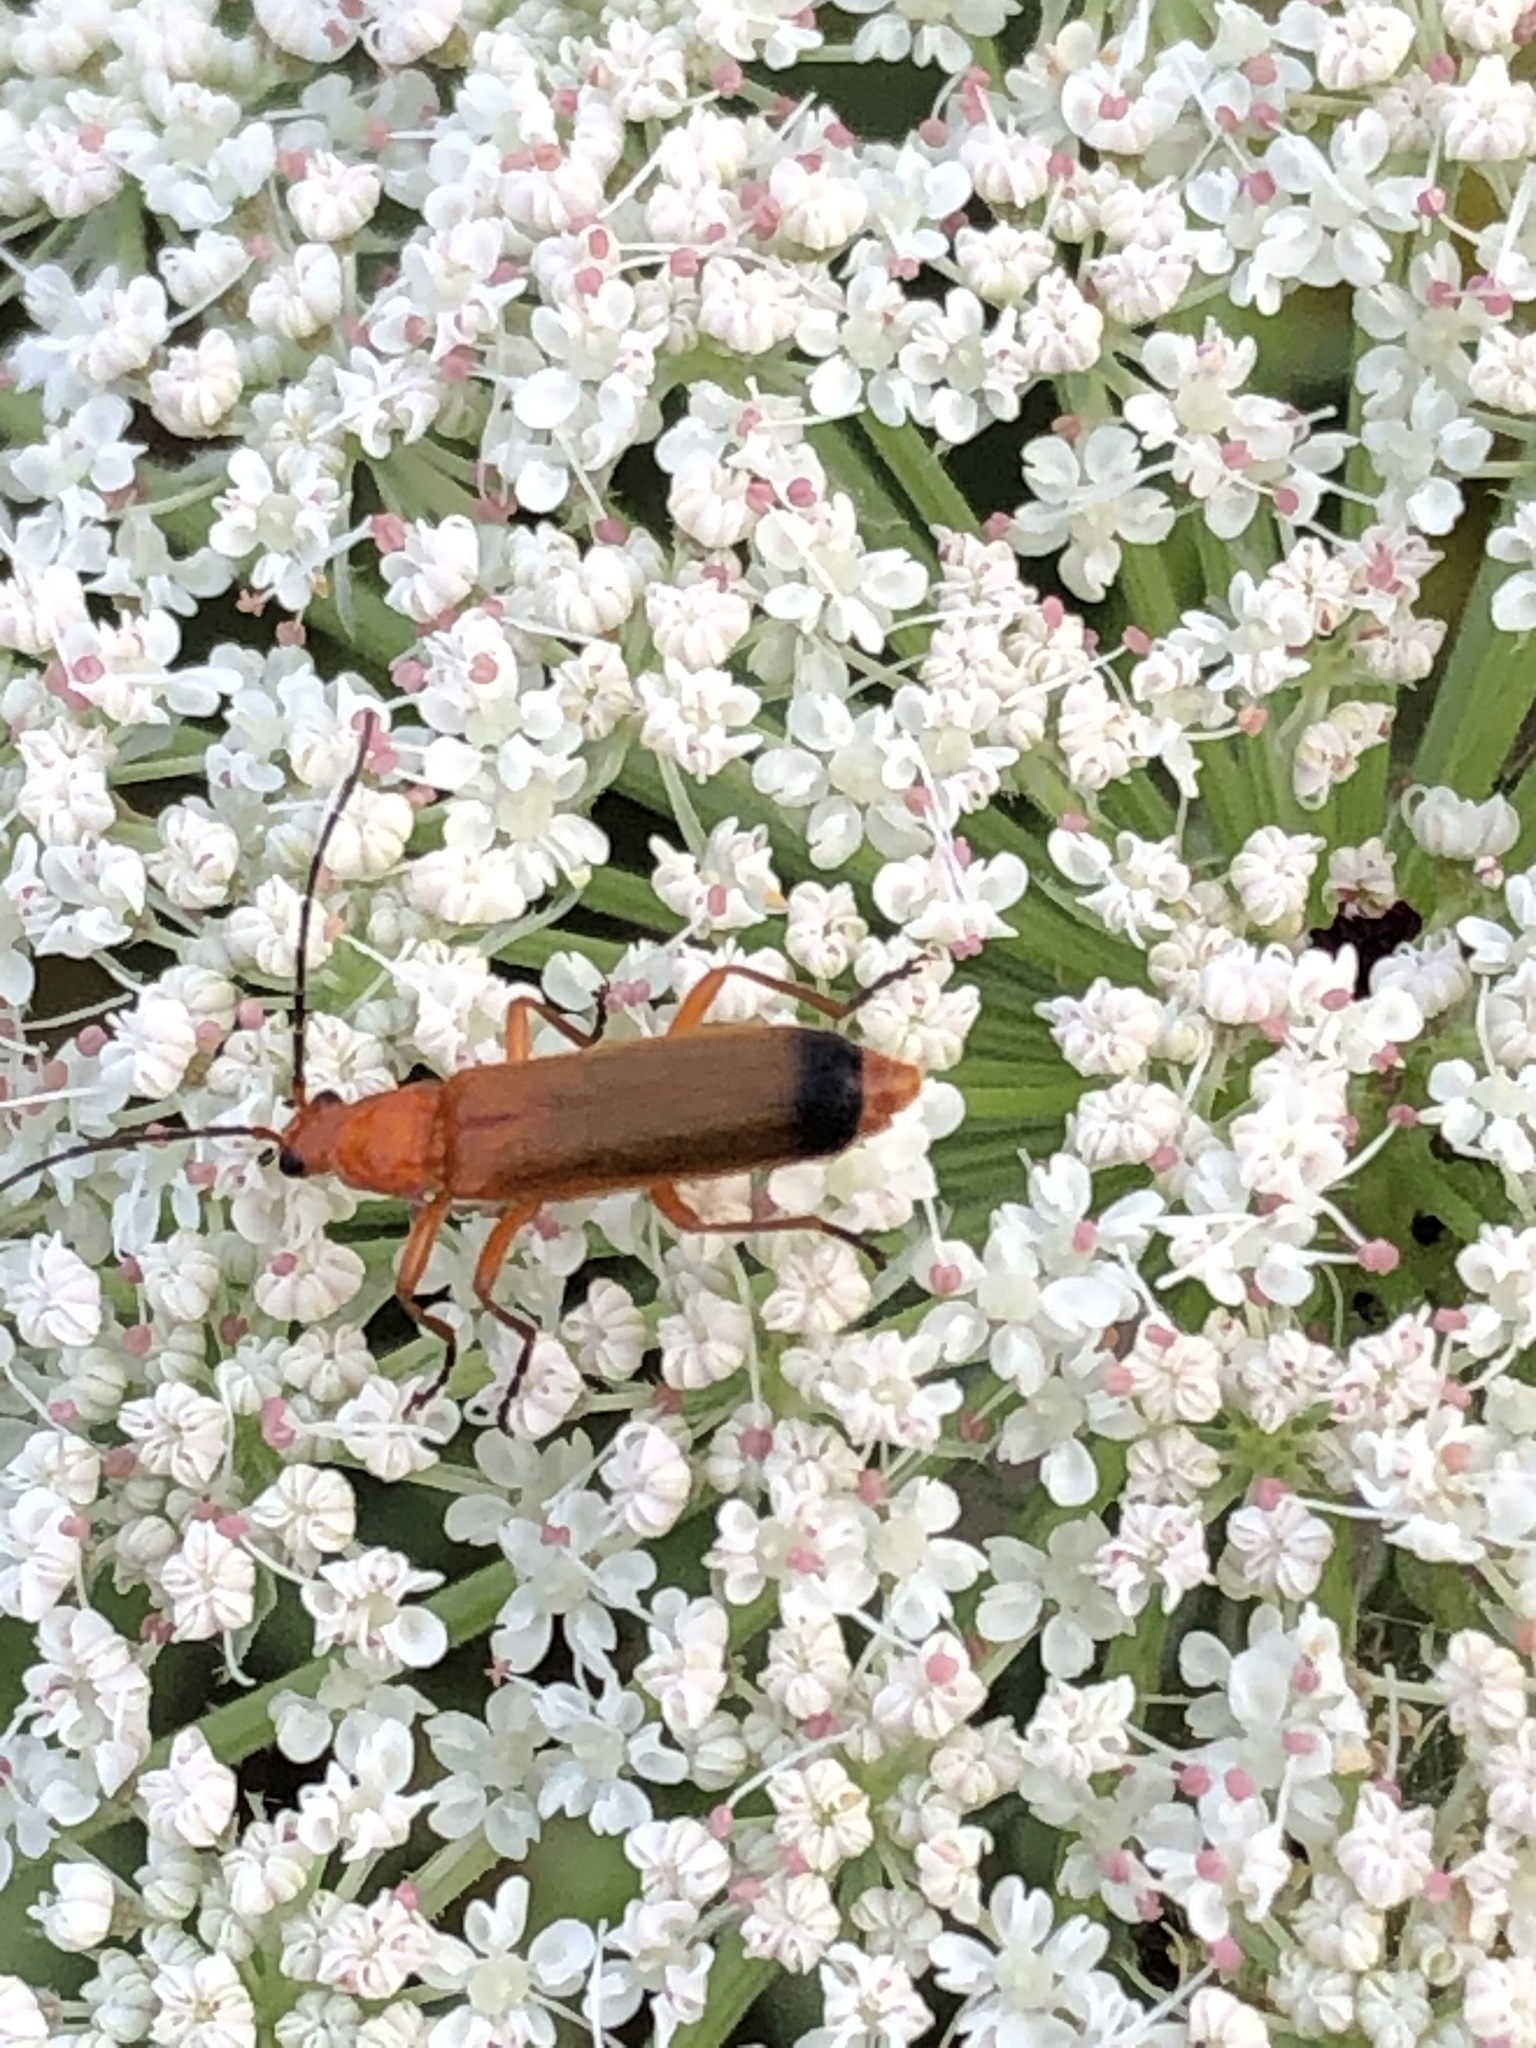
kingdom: Animalia
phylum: Arthropoda
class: Insecta
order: Coleoptera
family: Cantharidae
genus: Rhagonycha
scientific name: Rhagonycha fulva
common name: Common red soldier beetle
